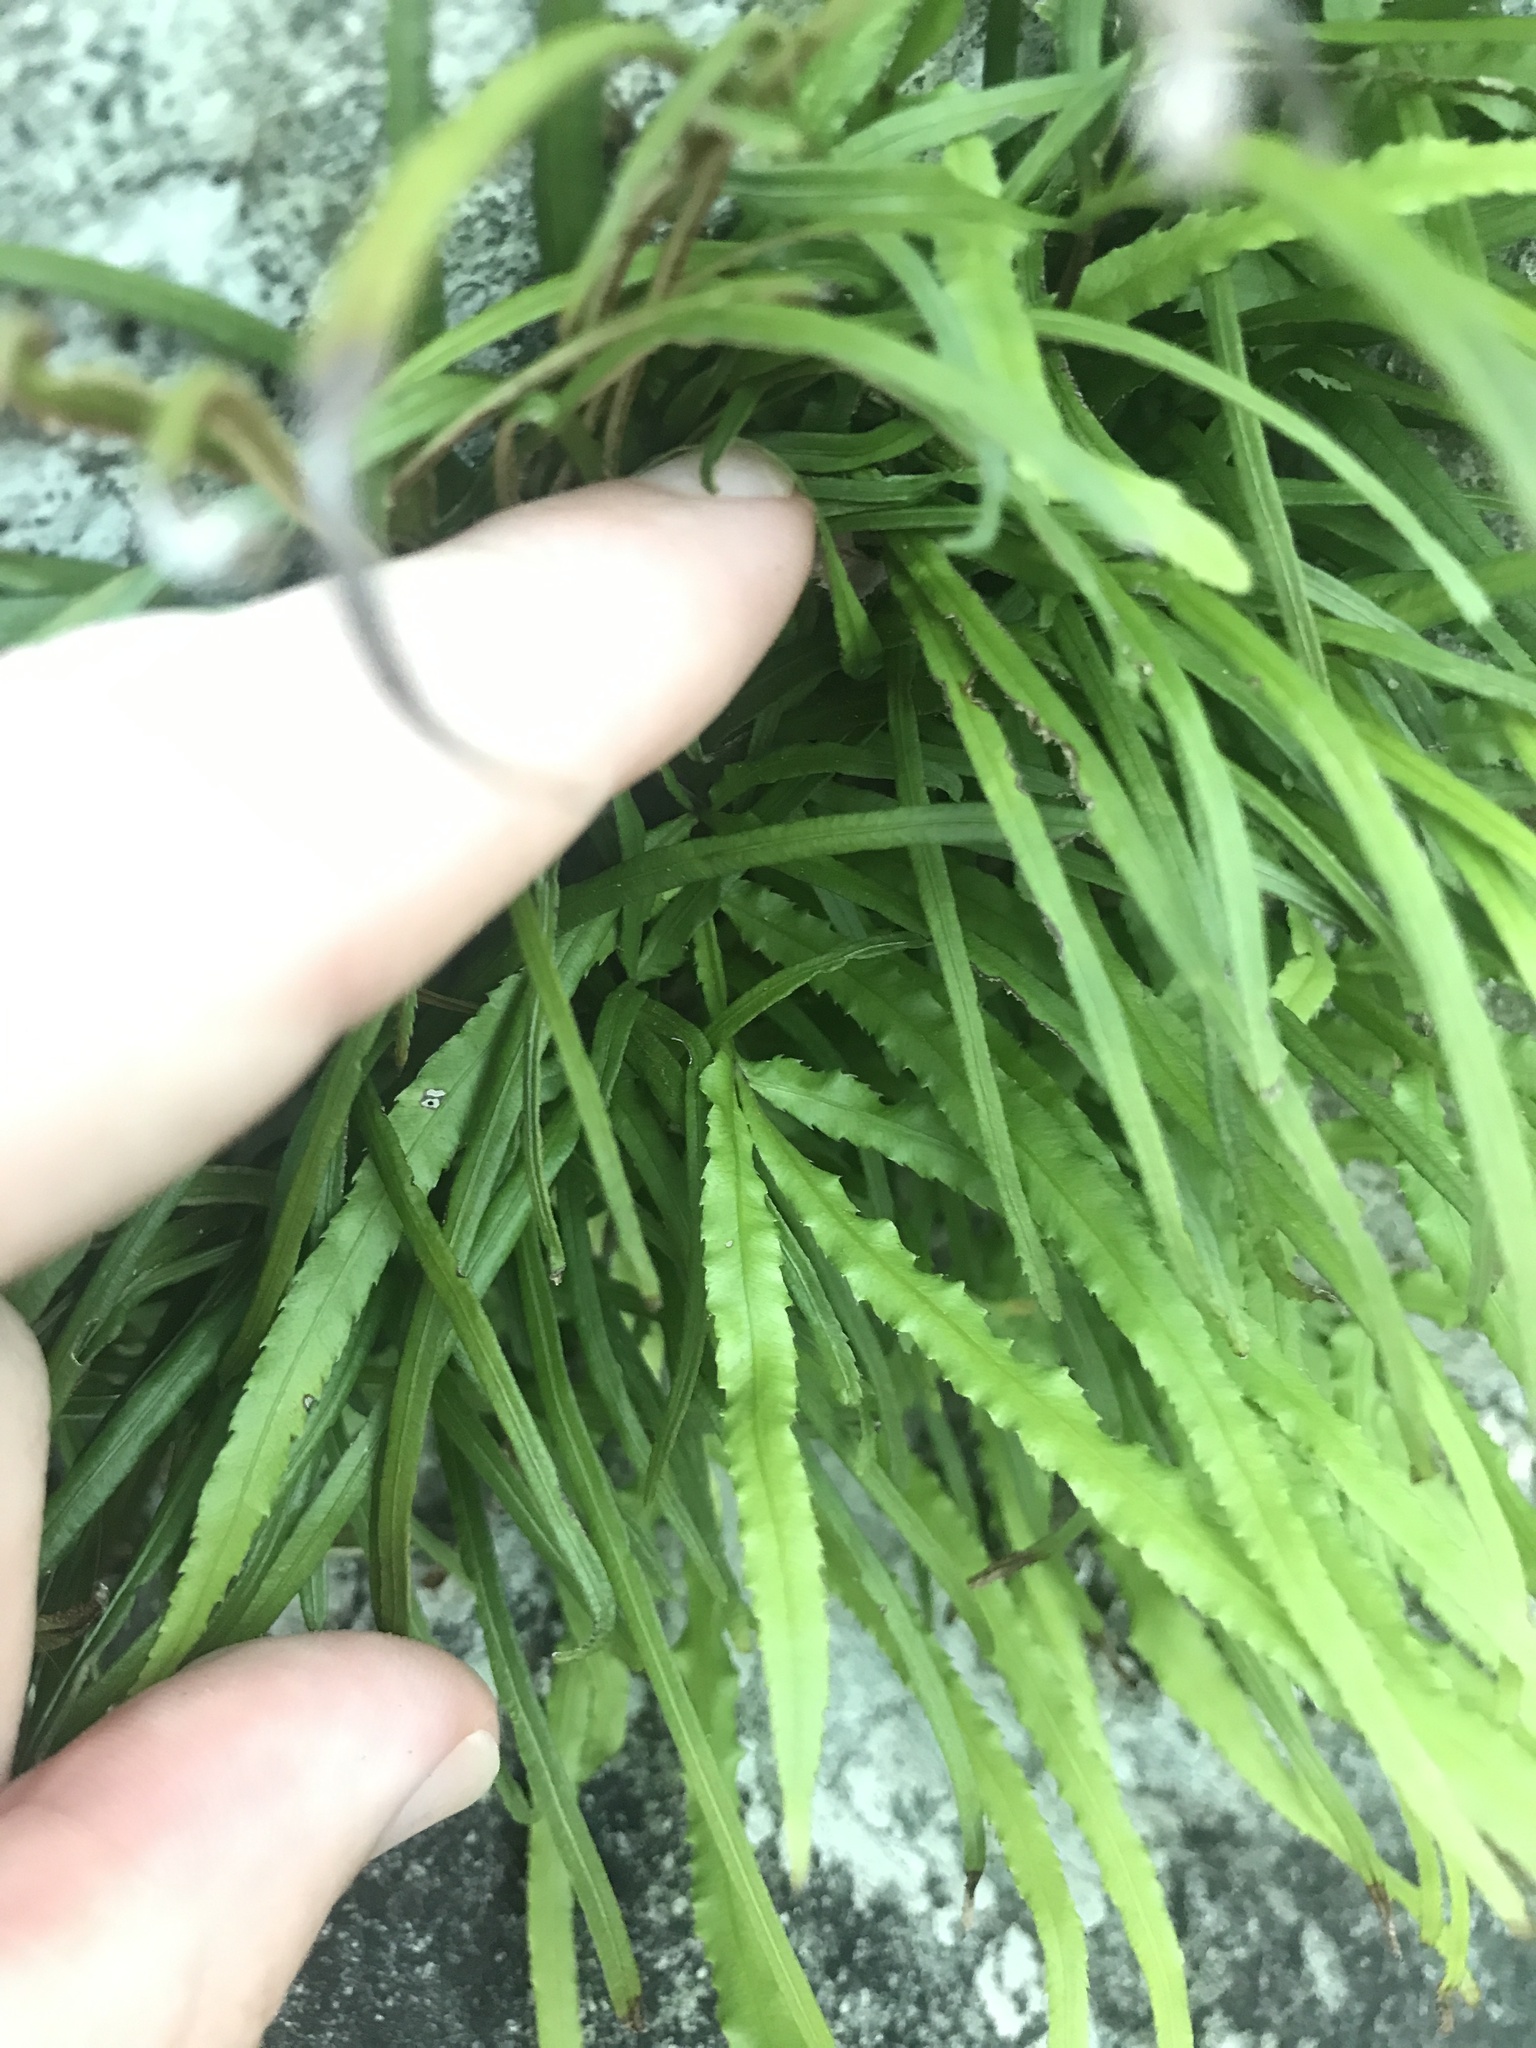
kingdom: Plantae
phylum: Tracheophyta
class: Polypodiopsida
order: Polypodiales
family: Pteridaceae
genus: Pteris
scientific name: Pteris multifida
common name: Spider brake
